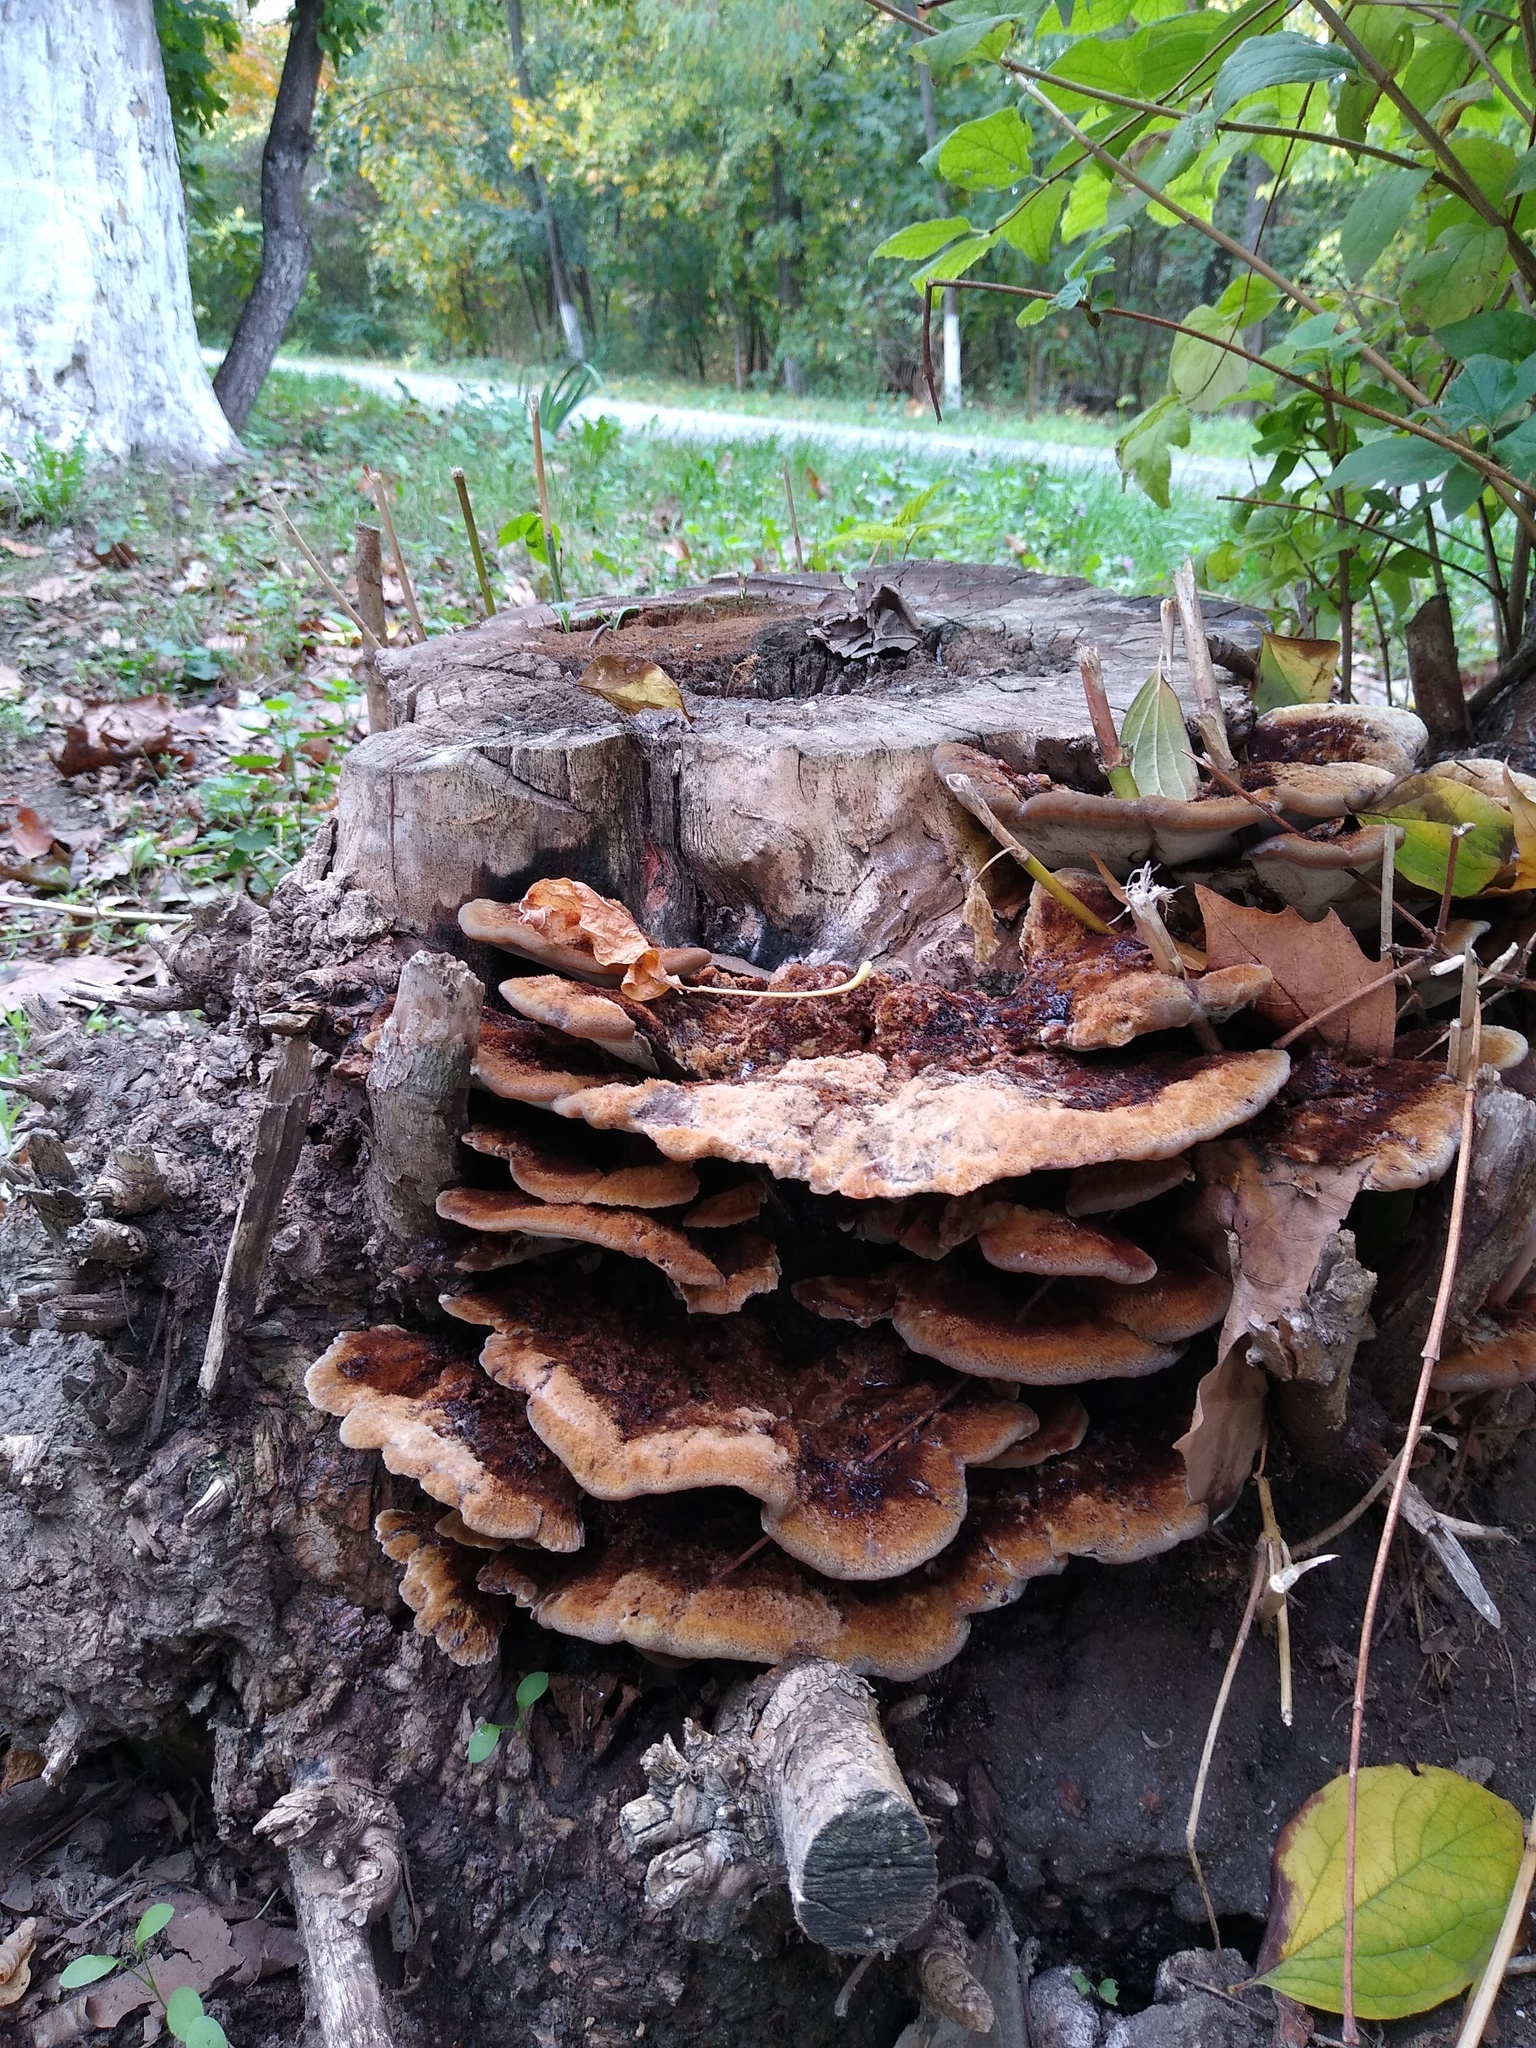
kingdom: Fungi
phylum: Basidiomycota
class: Agaricomycetes
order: Polyporales
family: Laetiporaceae
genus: Laetiporus
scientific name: Laetiporus sulphureus
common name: Chicken of the woods
